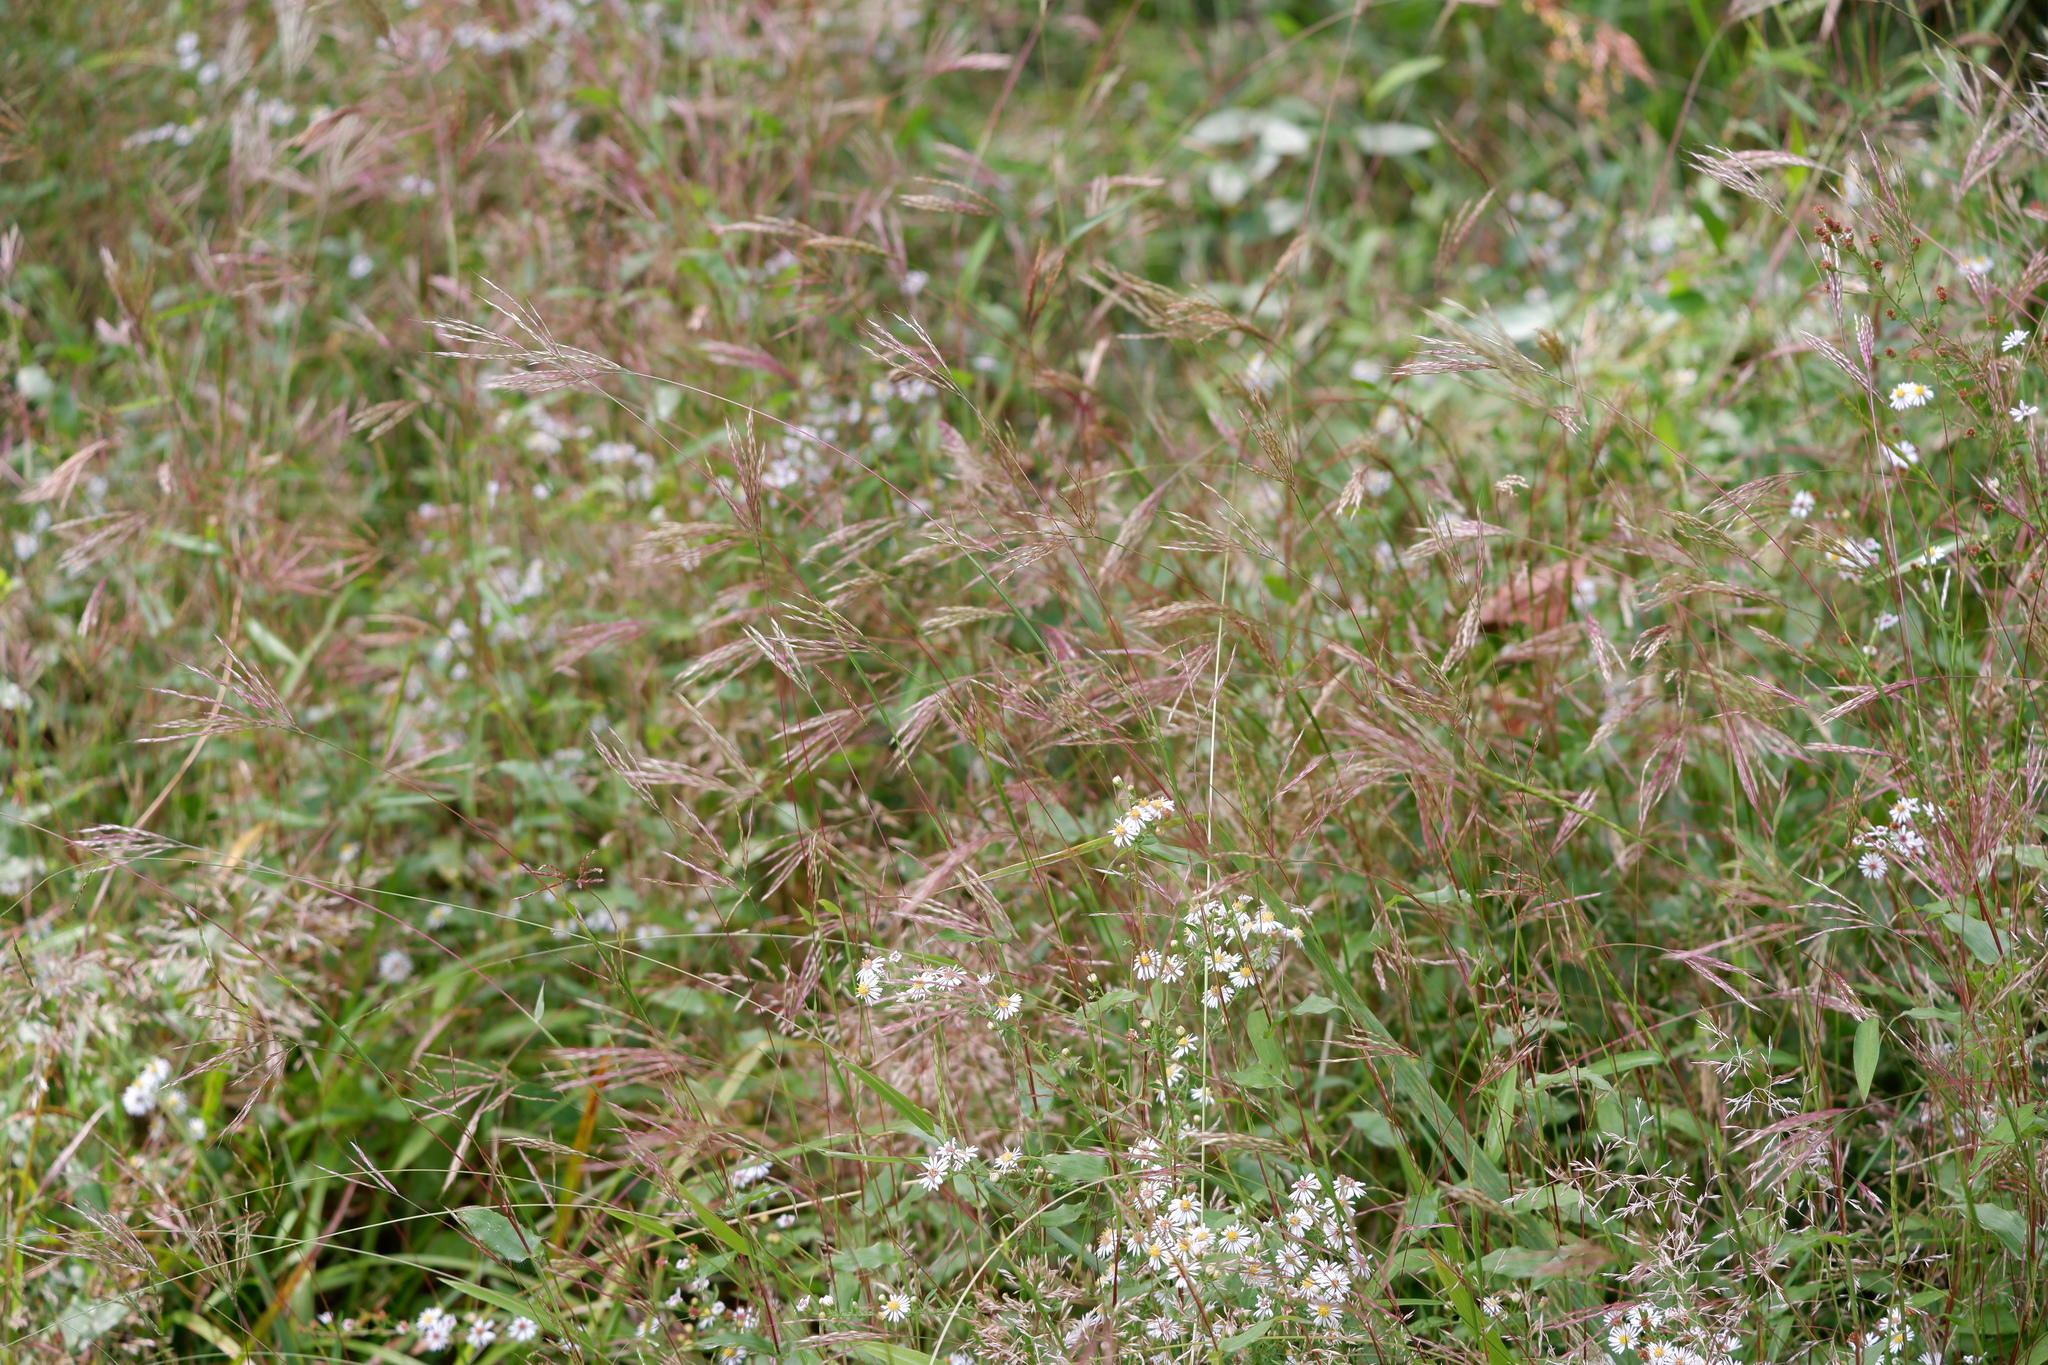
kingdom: Plantae
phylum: Tracheophyta
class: Liliopsida
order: Poales
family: Poaceae
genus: Arthraxon
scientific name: Arthraxon hispidus
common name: Small carpgrass
